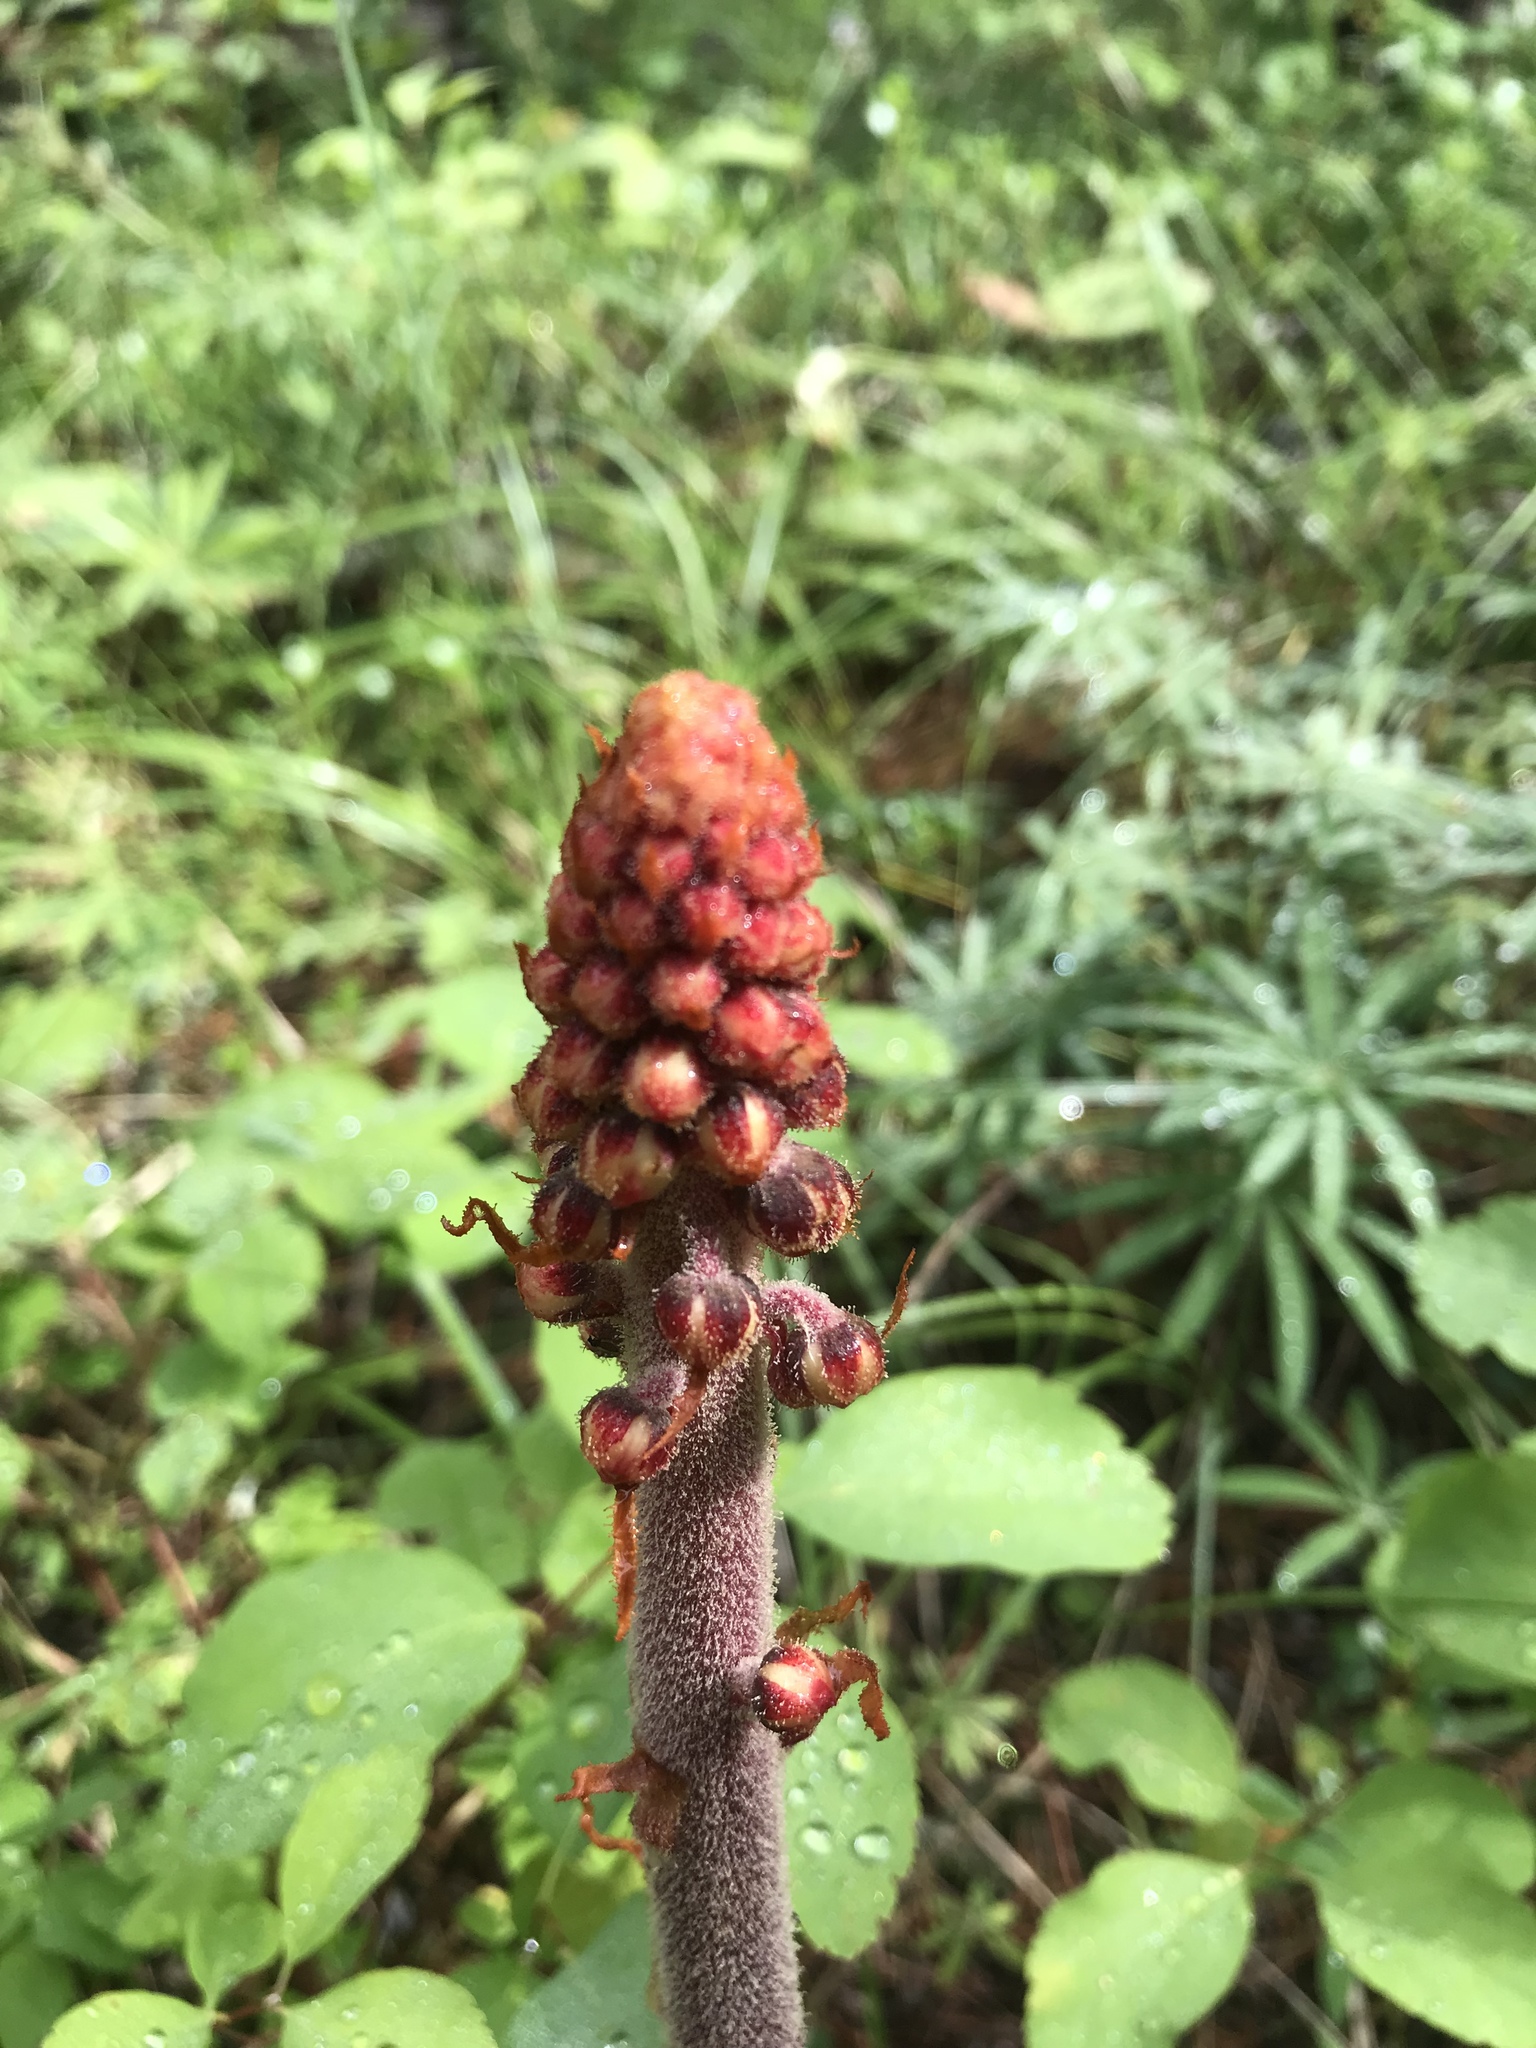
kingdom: Plantae
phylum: Tracheophyta
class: Magnoliopsida
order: Ericales
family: Ericaceae
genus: Pterospora
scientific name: Pterospora andromedea
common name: Giant bird's-nest
